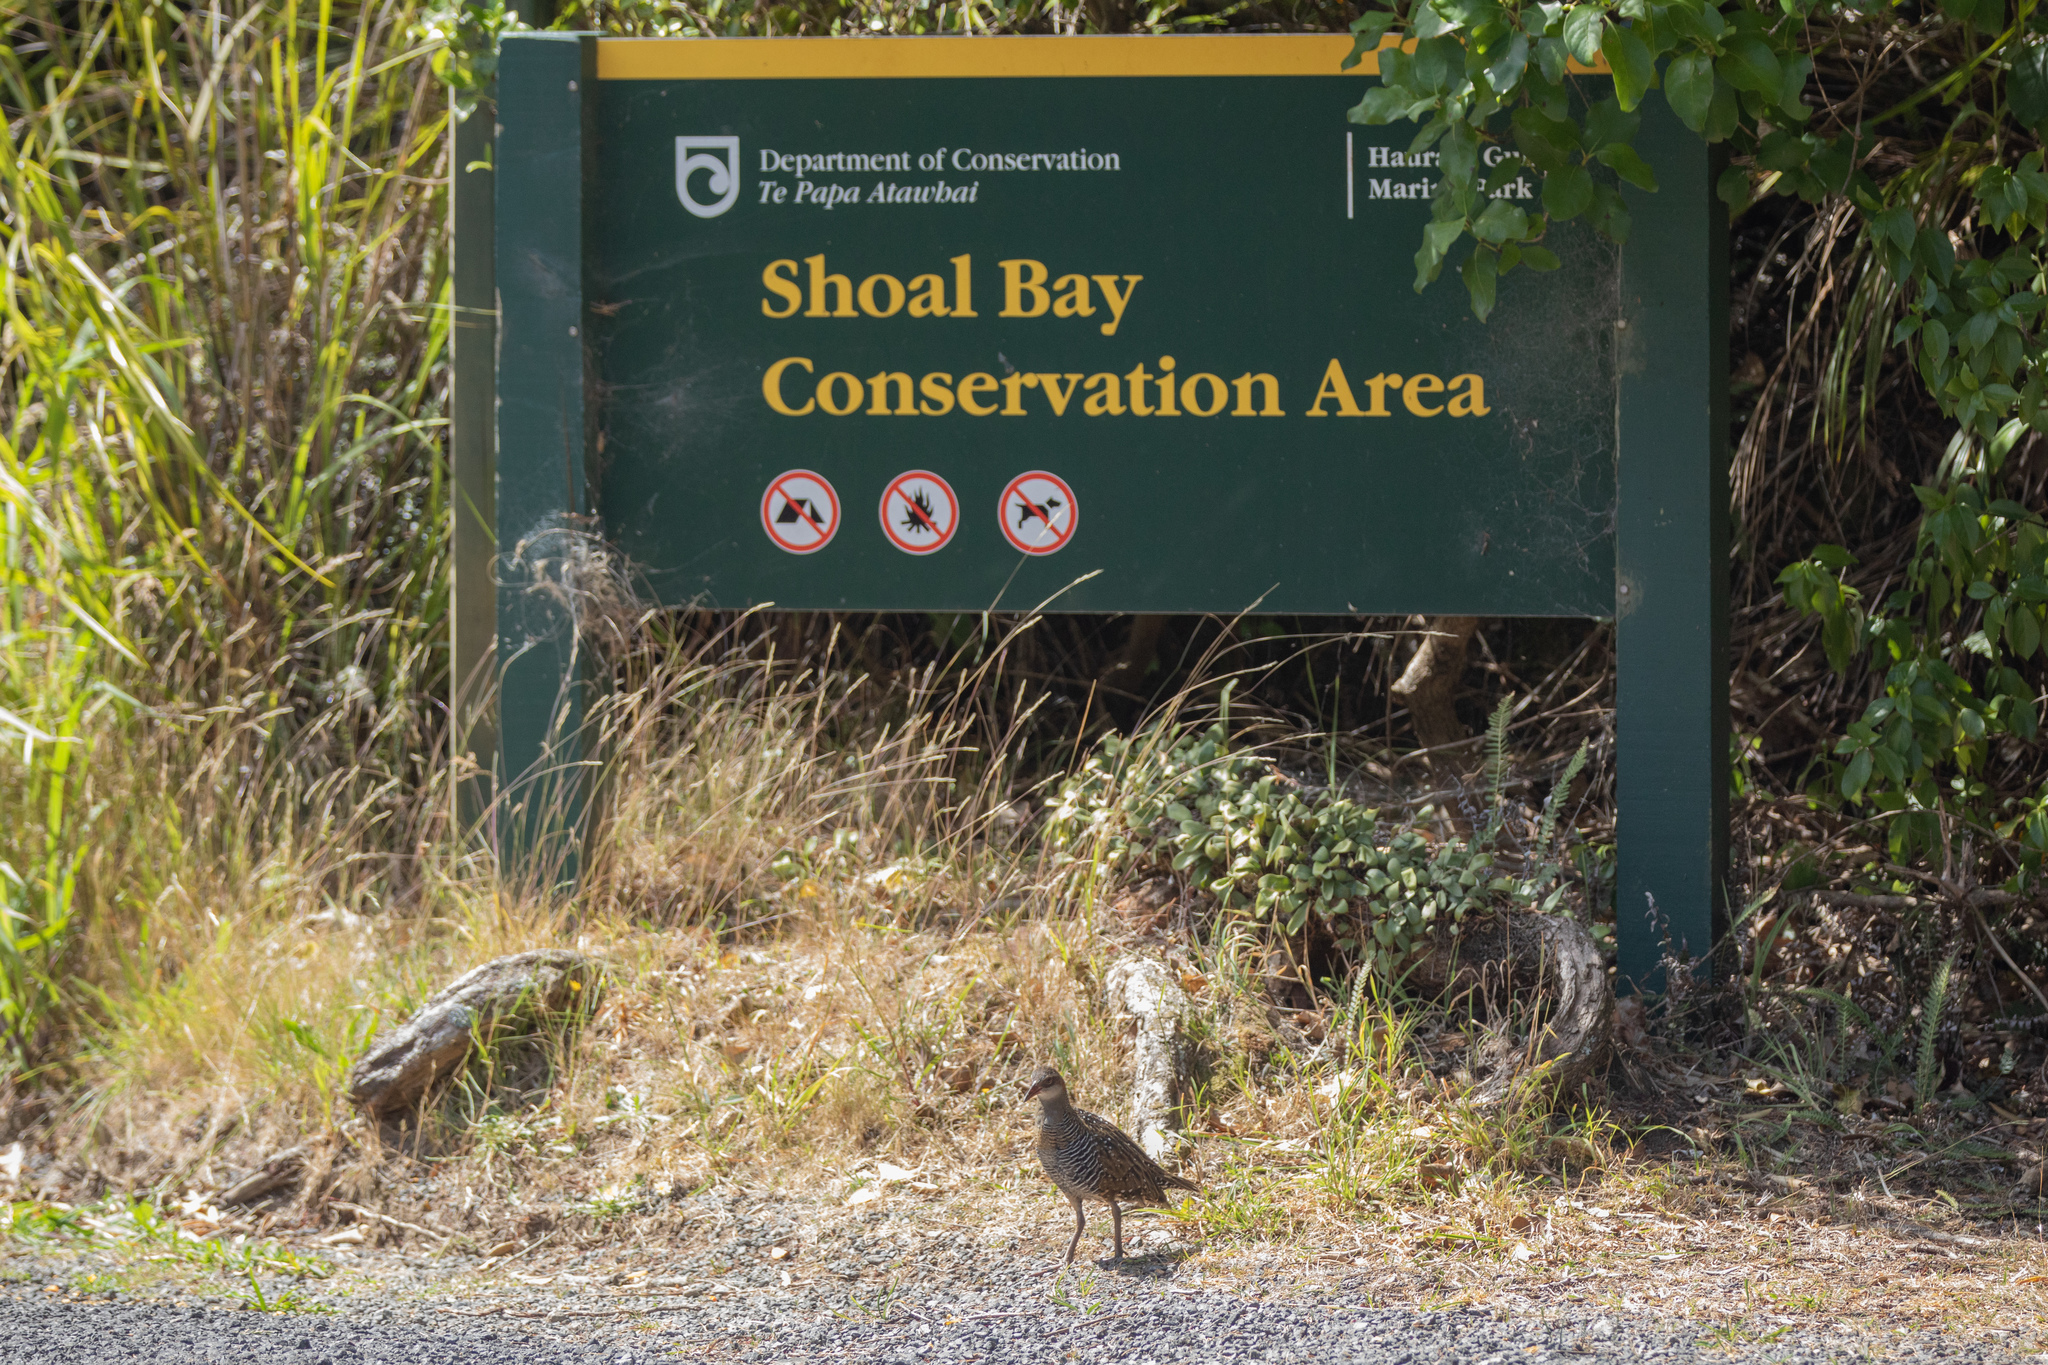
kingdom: Animalia
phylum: Chordata
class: Aves
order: Gruiformes
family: Rallidae
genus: Gallirallus
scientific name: Gallirallus philippensis
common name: Buff-banded rail
